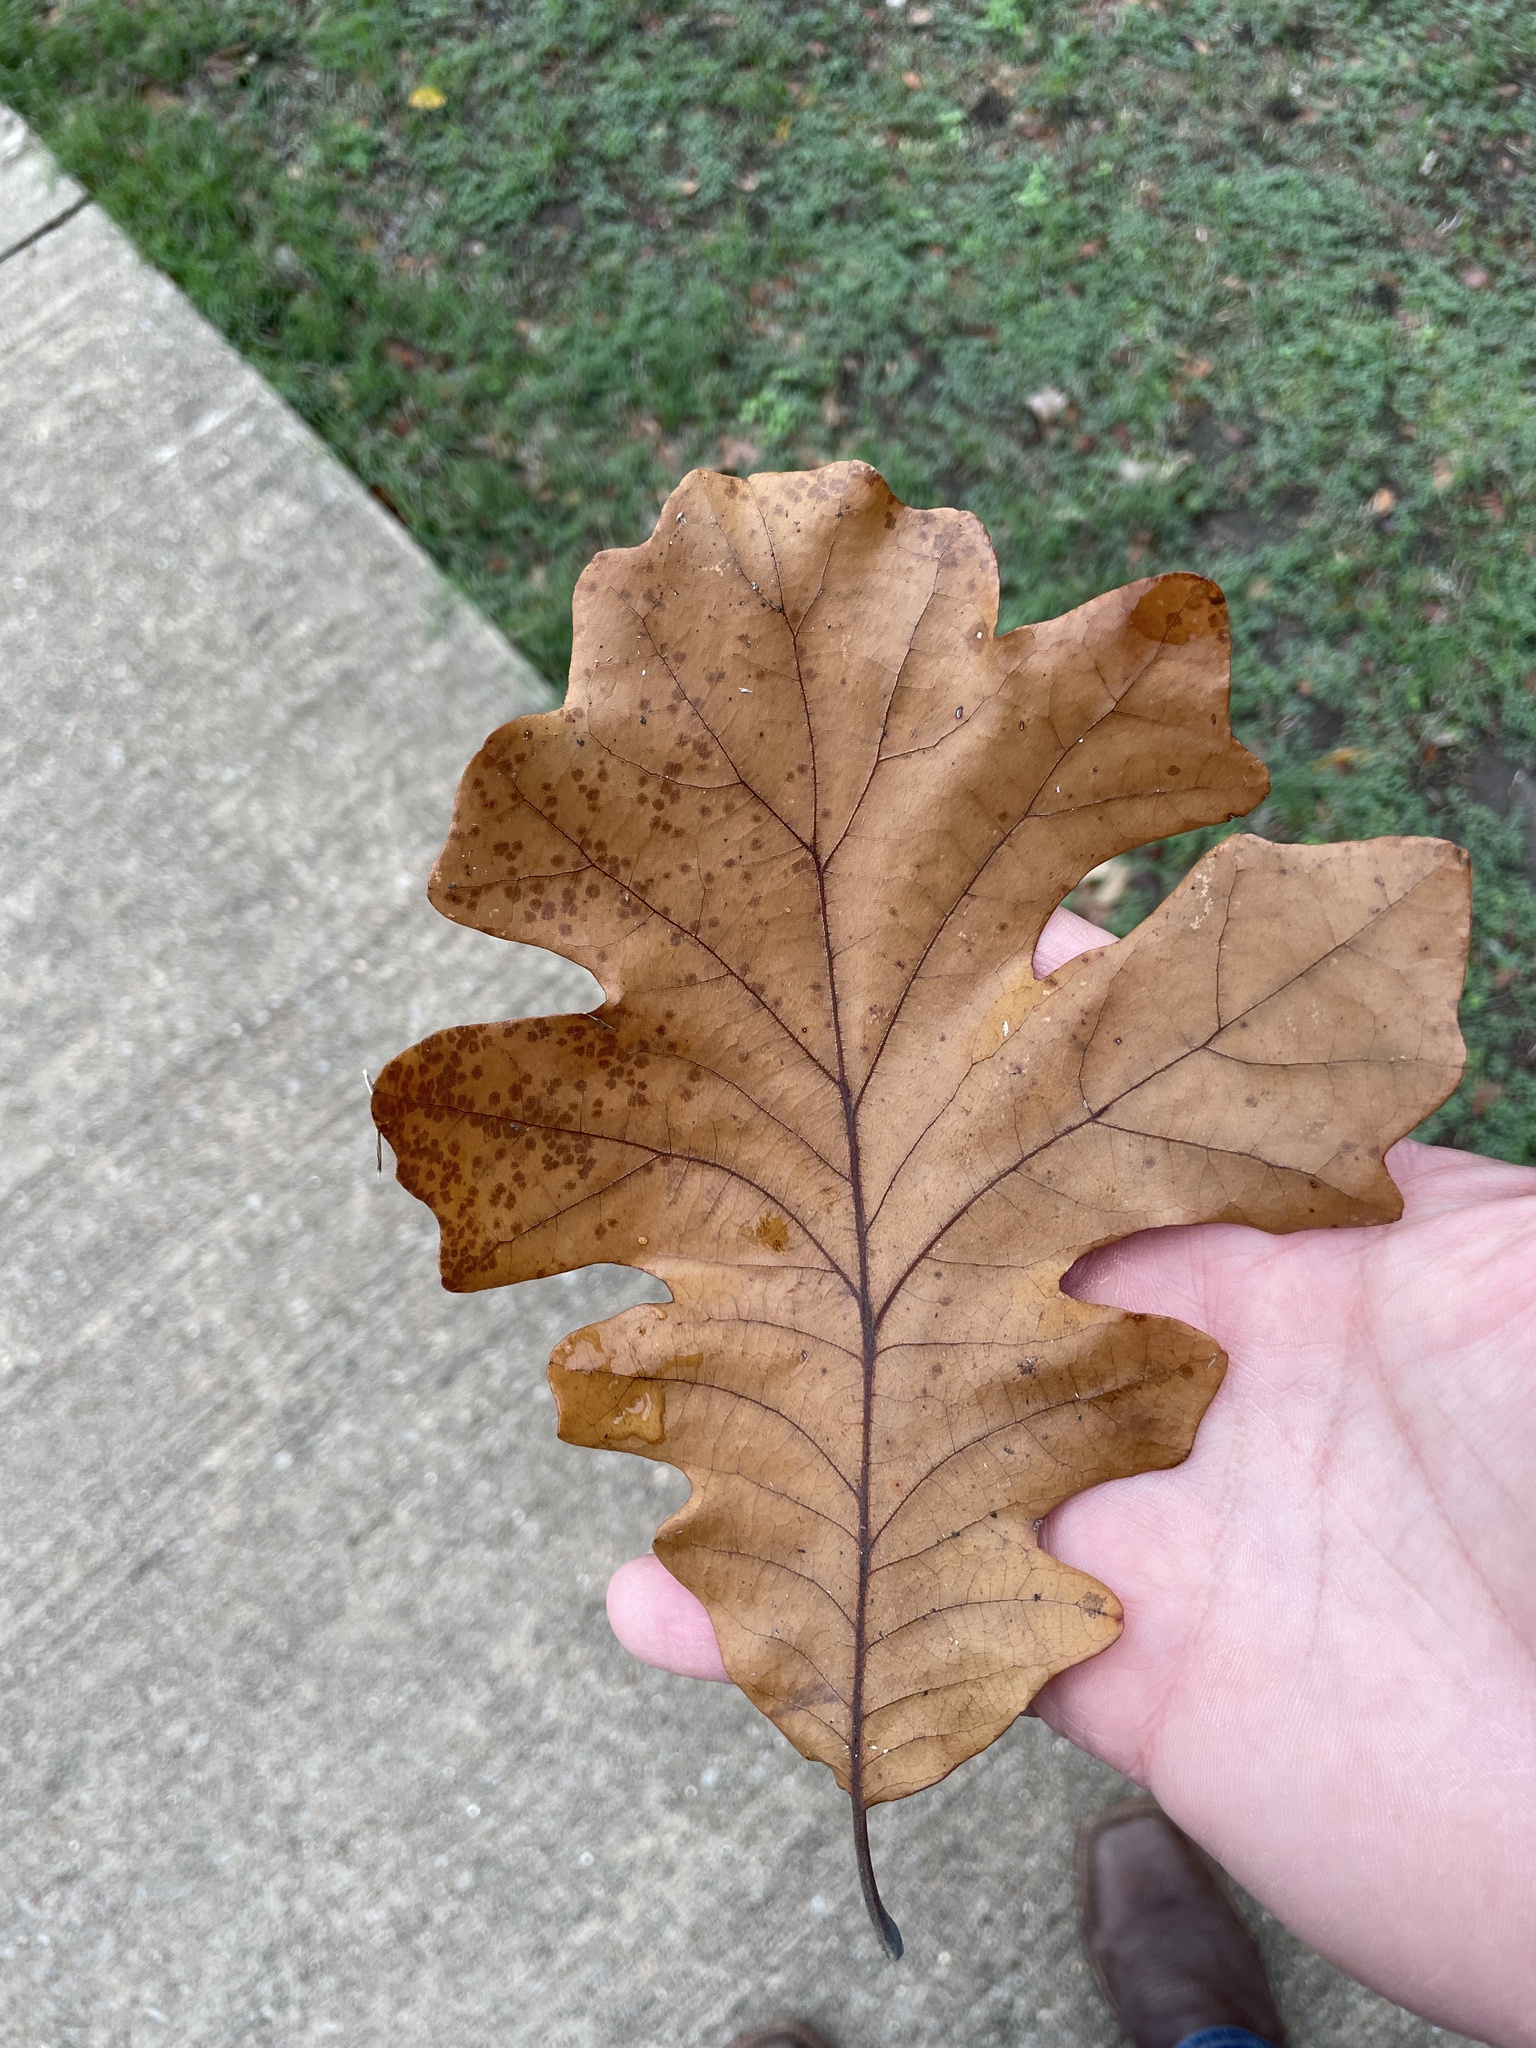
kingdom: Plantae
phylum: Tracheophyta
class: Magnoliopsida
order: Fagales
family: Fagaceae
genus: Quercus
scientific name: Quercus macrocarpa
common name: Bur oak
